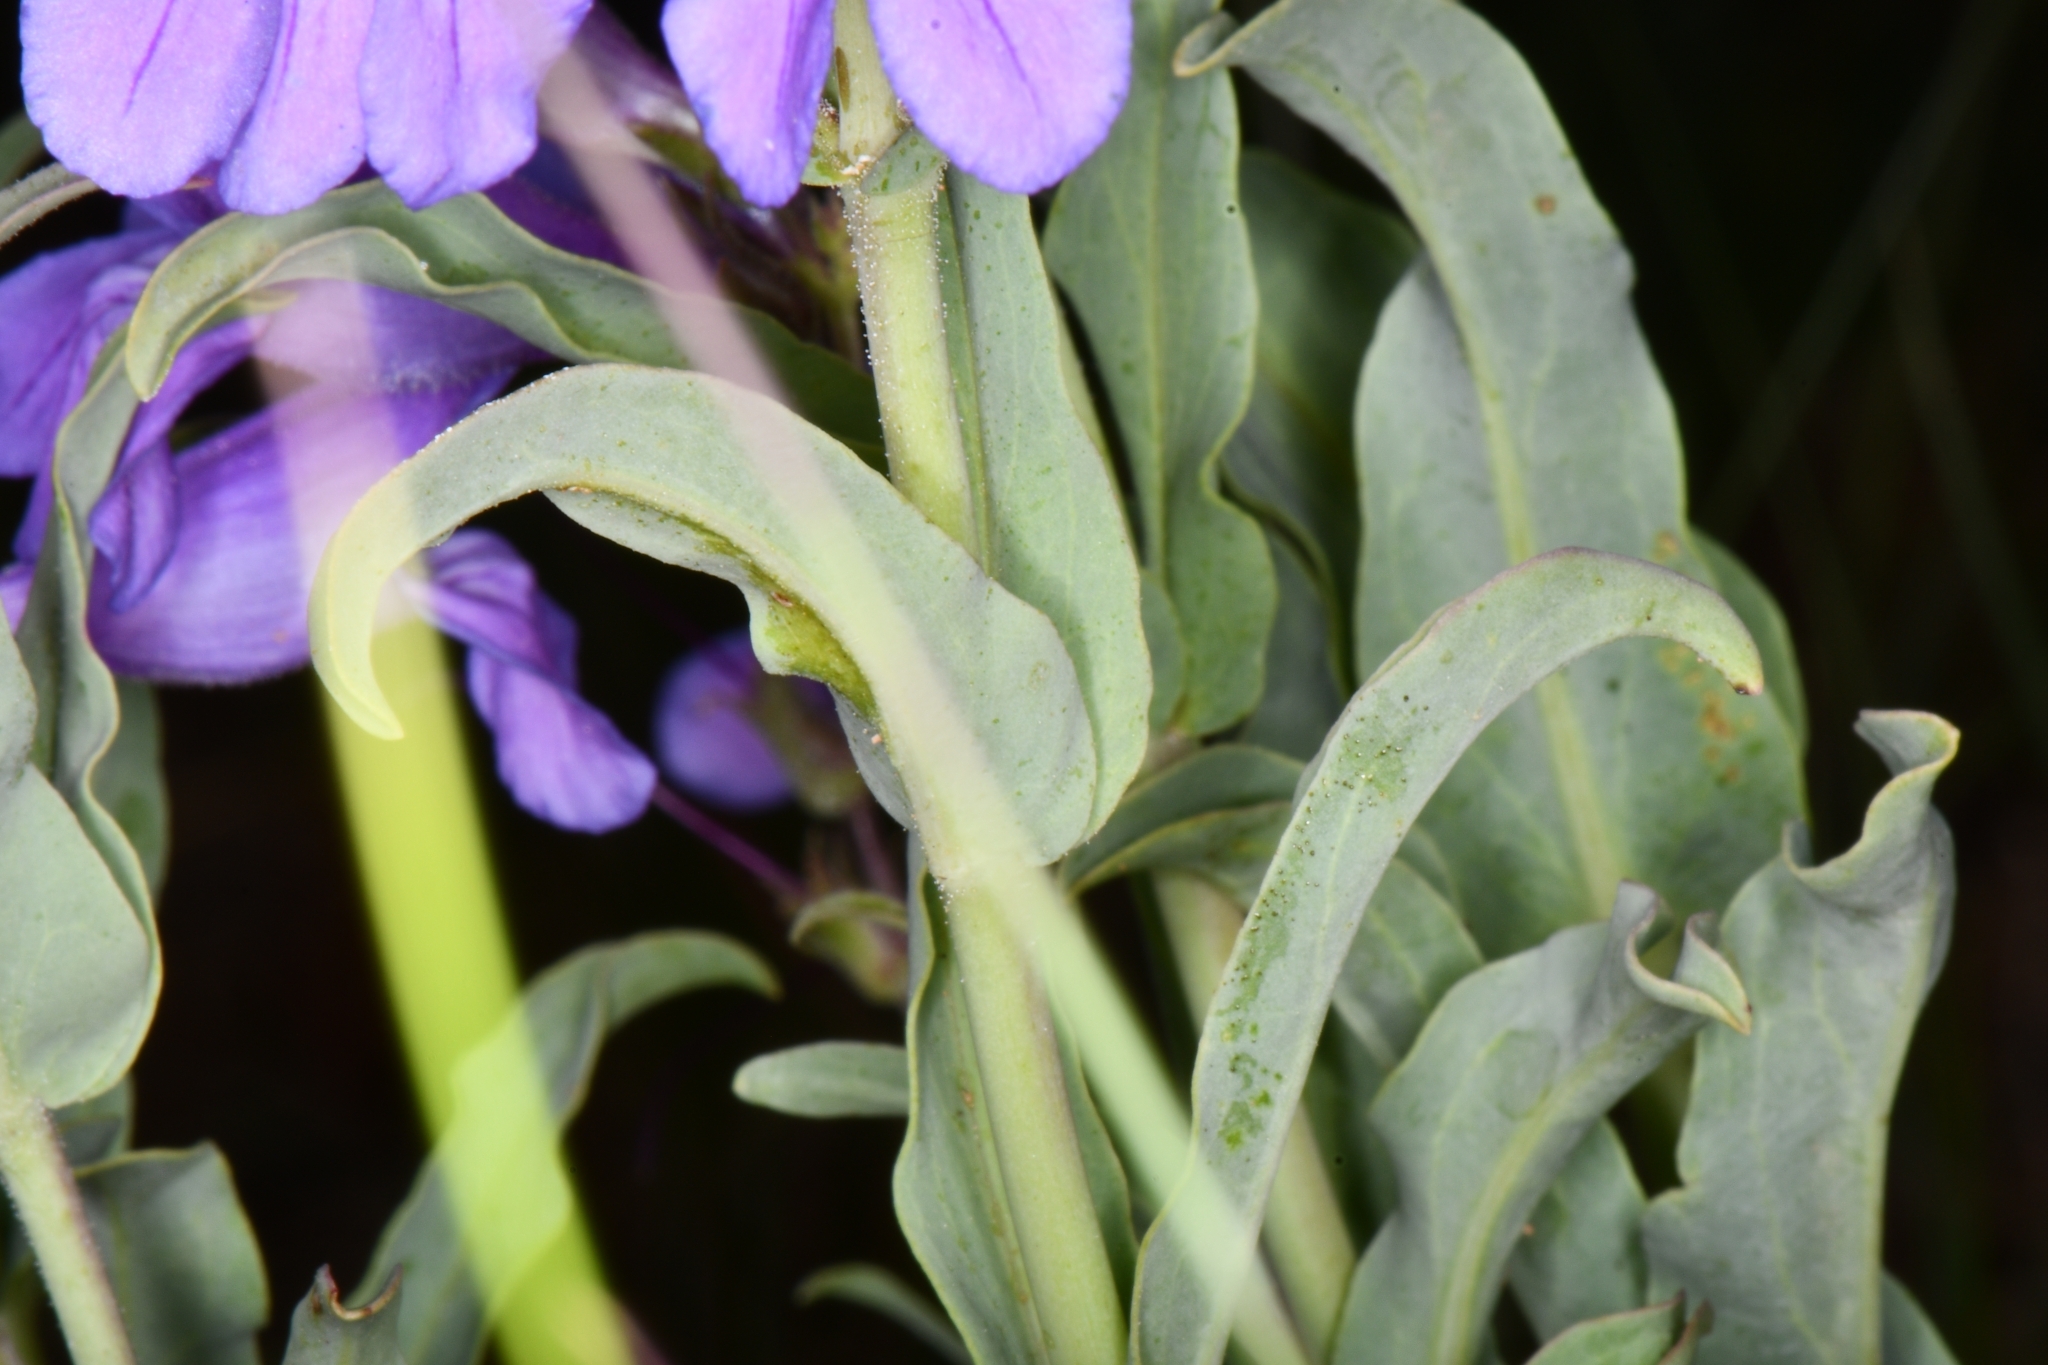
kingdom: Plantae
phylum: Tracheophyta
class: Magnoliopsida
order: Lamiales
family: Plantaginaceae
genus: Penstemon
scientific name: Penstemon leiophyllus
